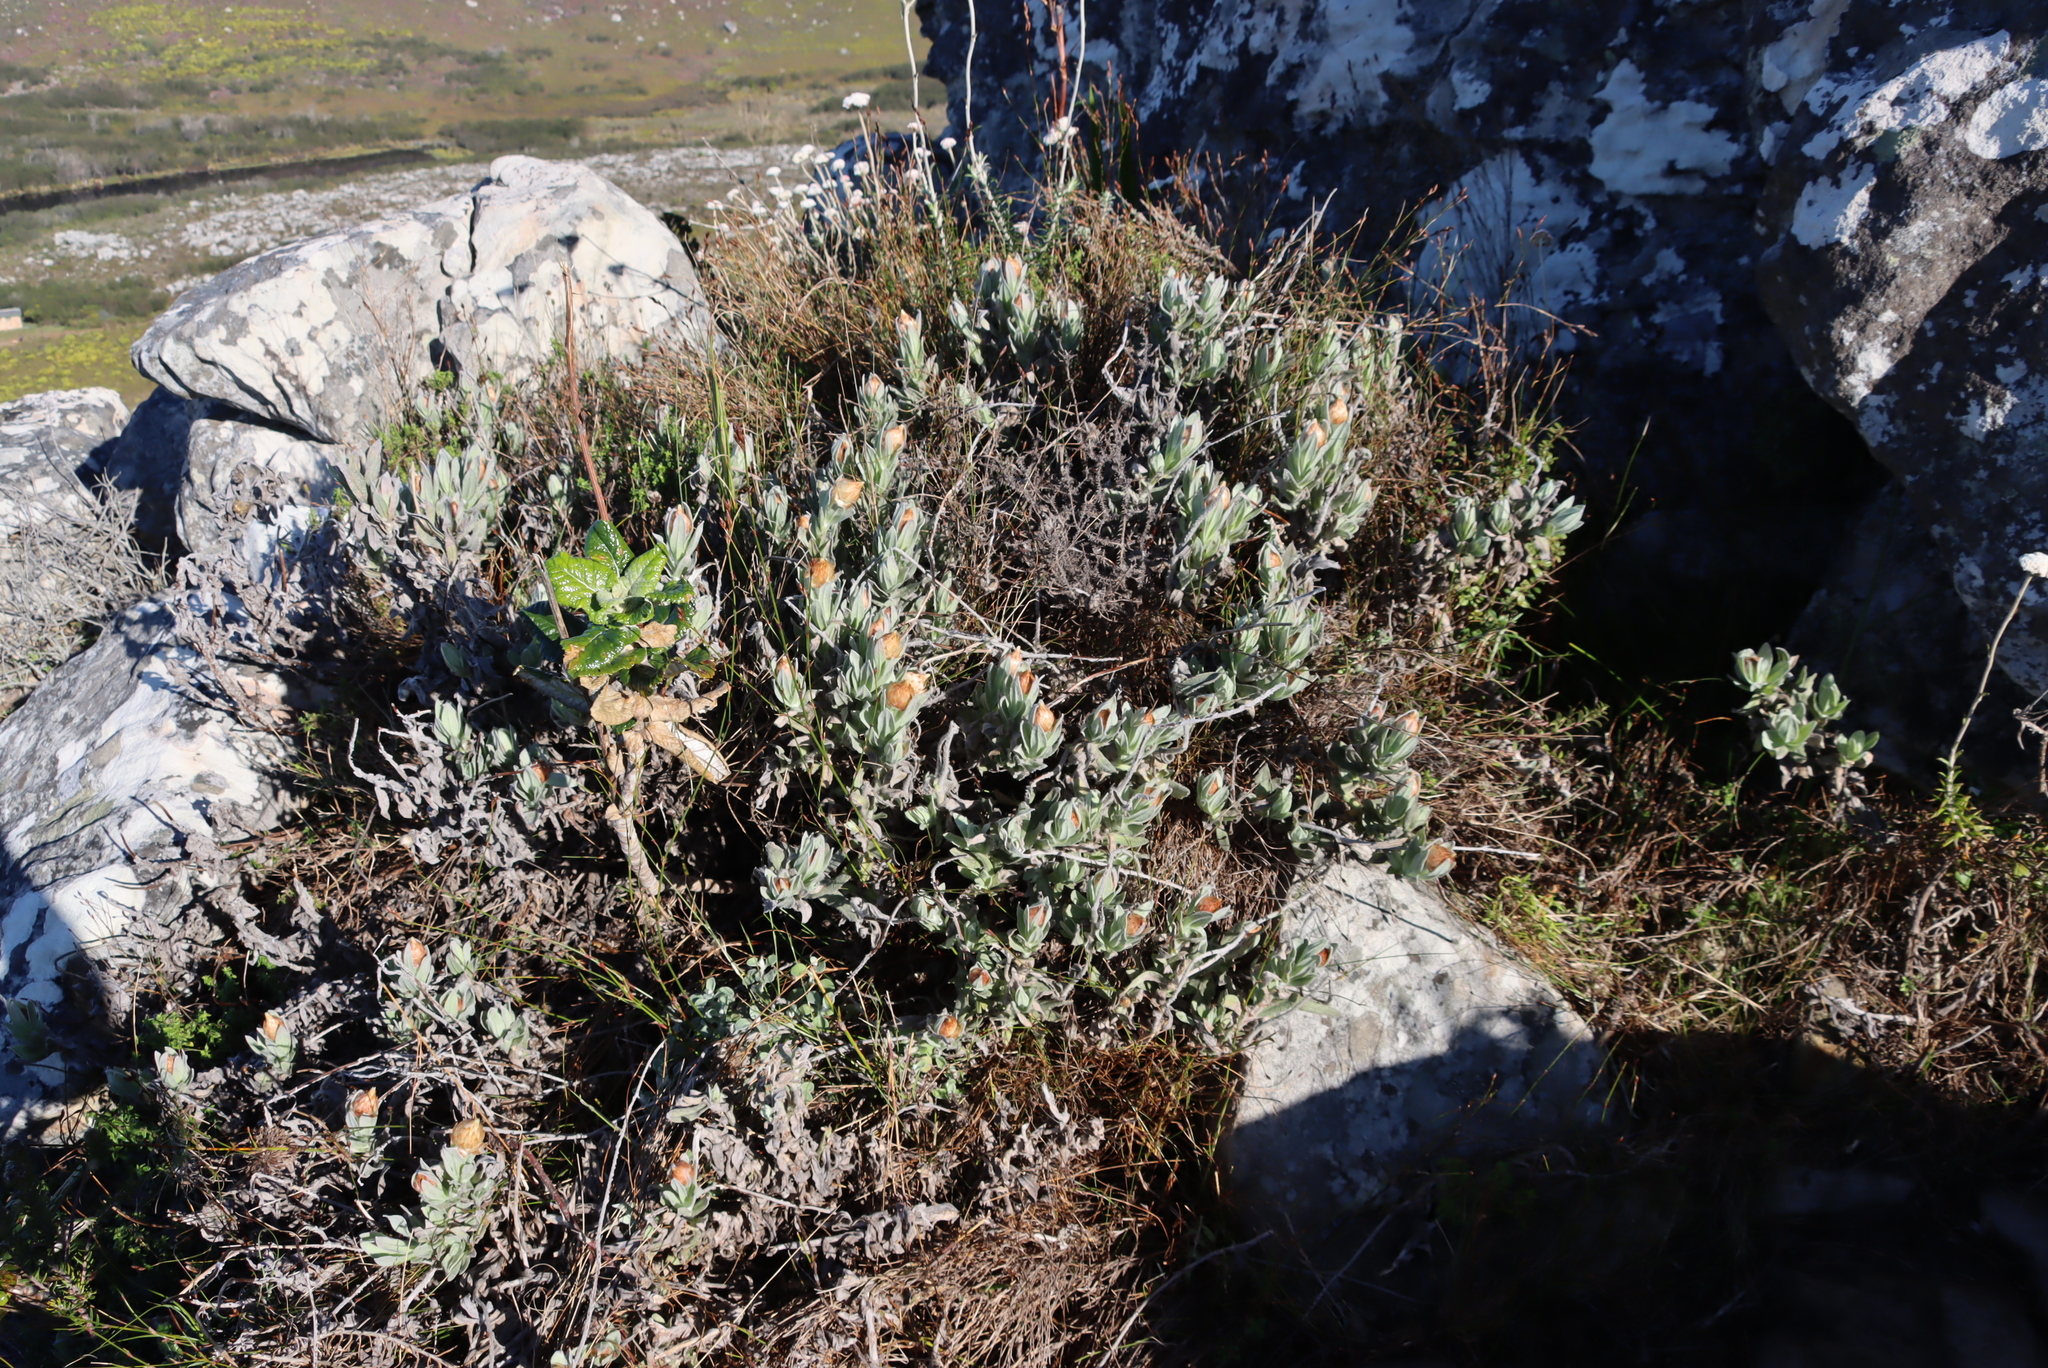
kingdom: Plantae
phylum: Tracheophyta
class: Magnoliopsida
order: Asterales
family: Asteraceae
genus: Syncarpha
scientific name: Syncarpha speciosissima
